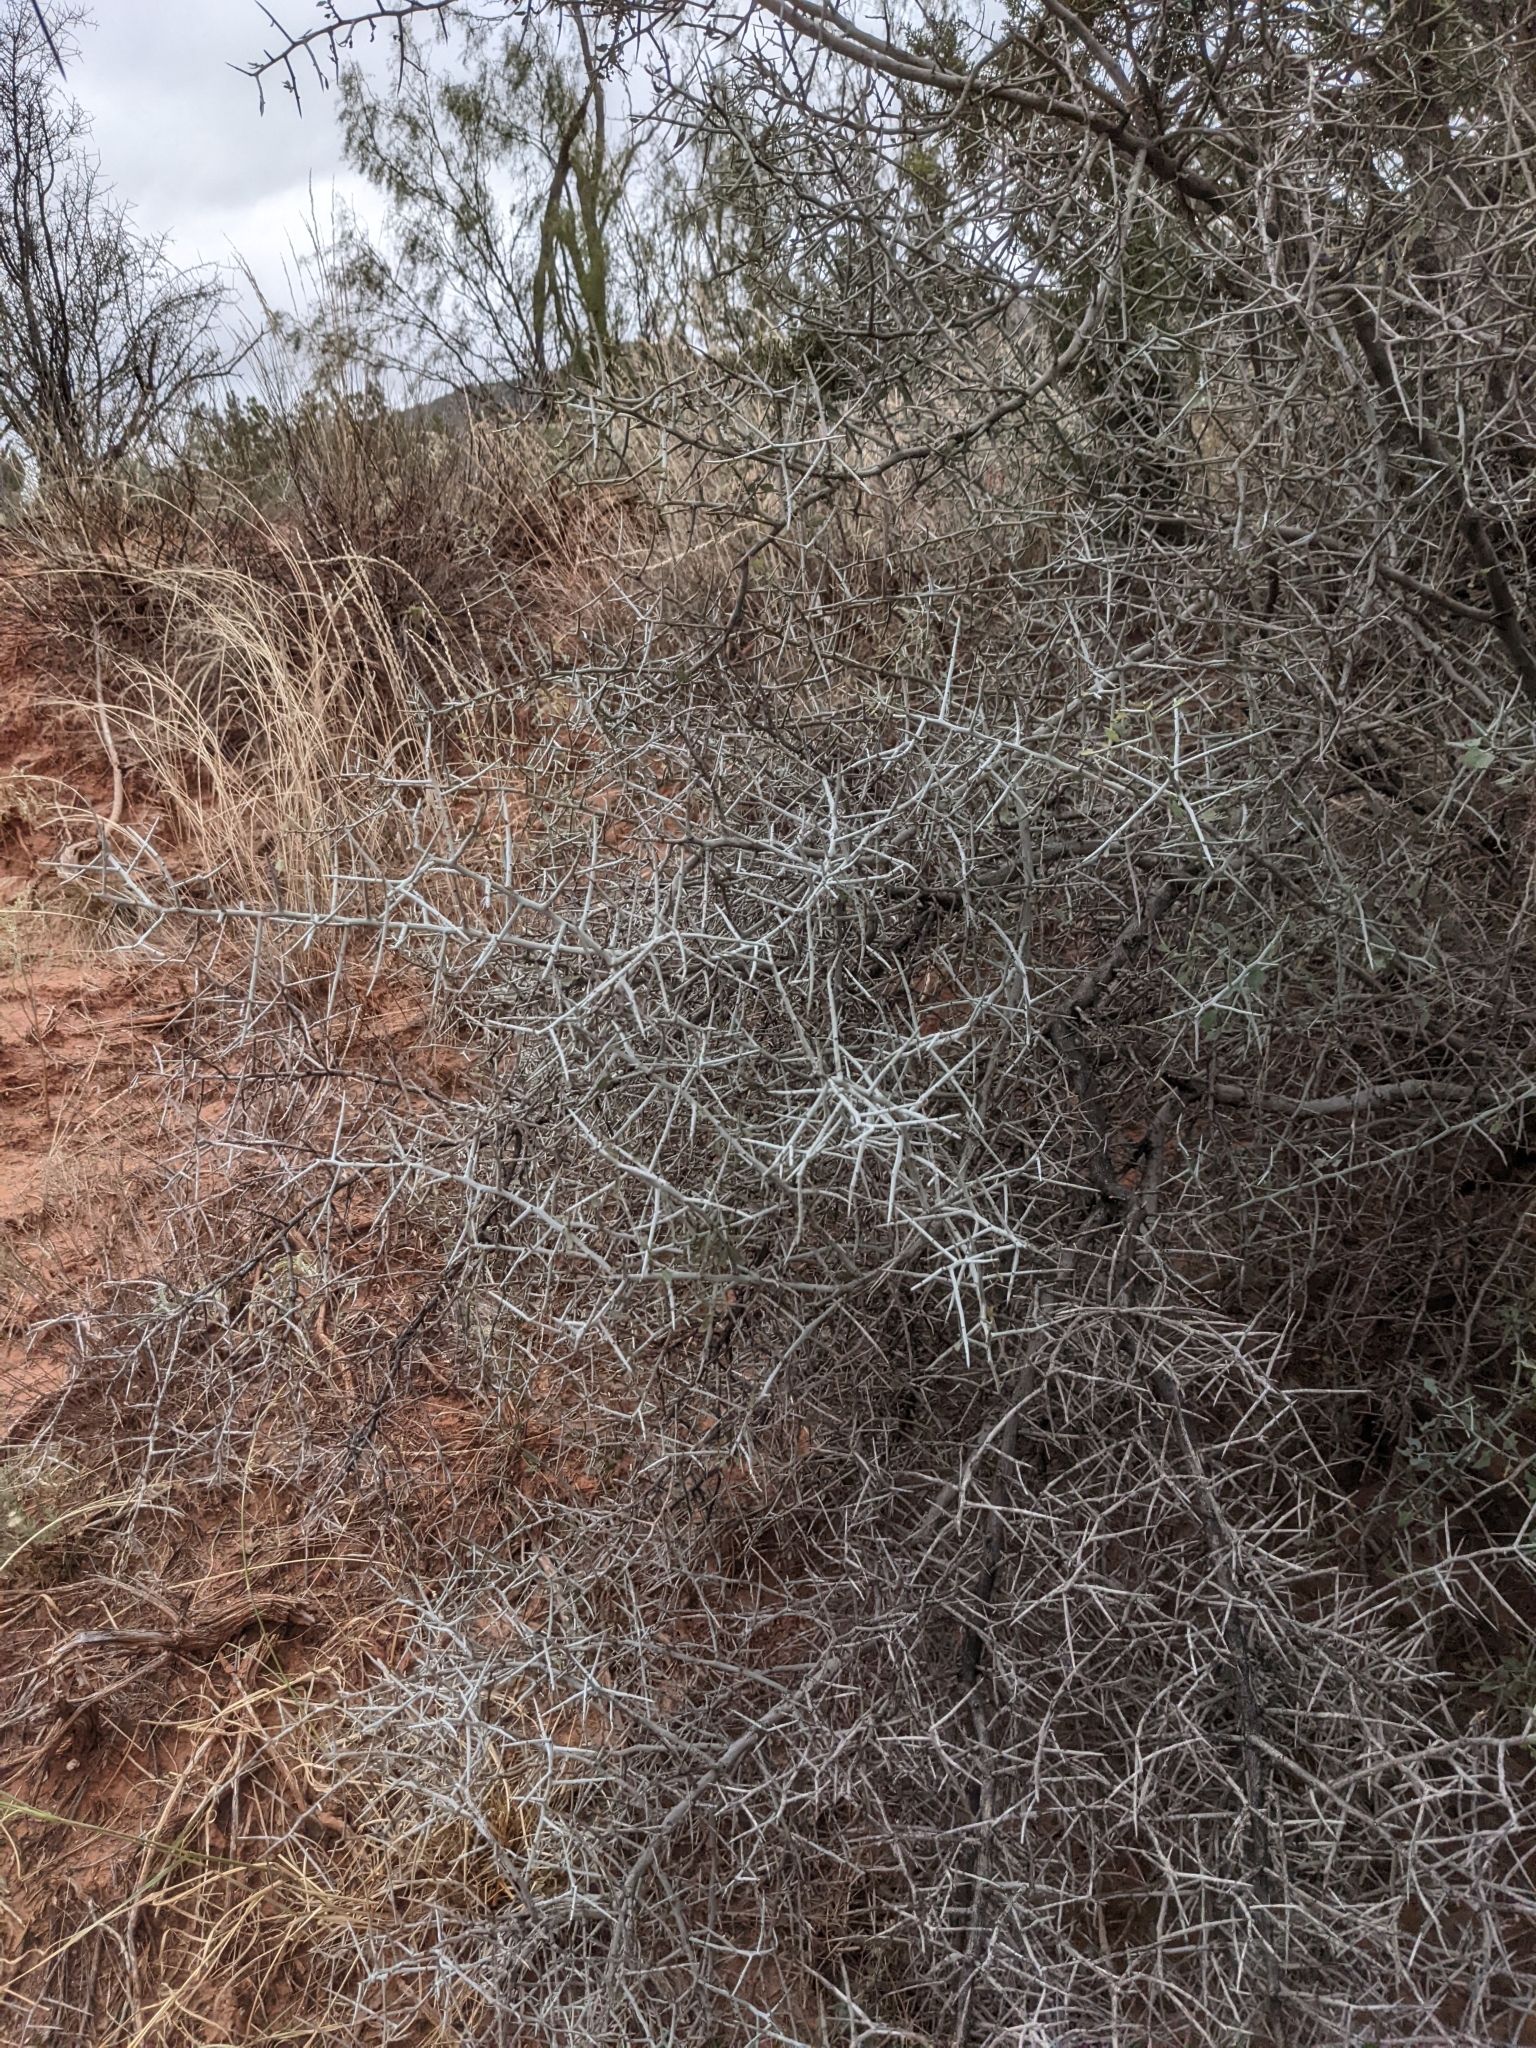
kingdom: Plantae
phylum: Tracheophyta
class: Magnoliopsida
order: Rosales
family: Rhamnaceae
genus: Sarcomphalus
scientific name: Sarcomphalus obtusifolius
